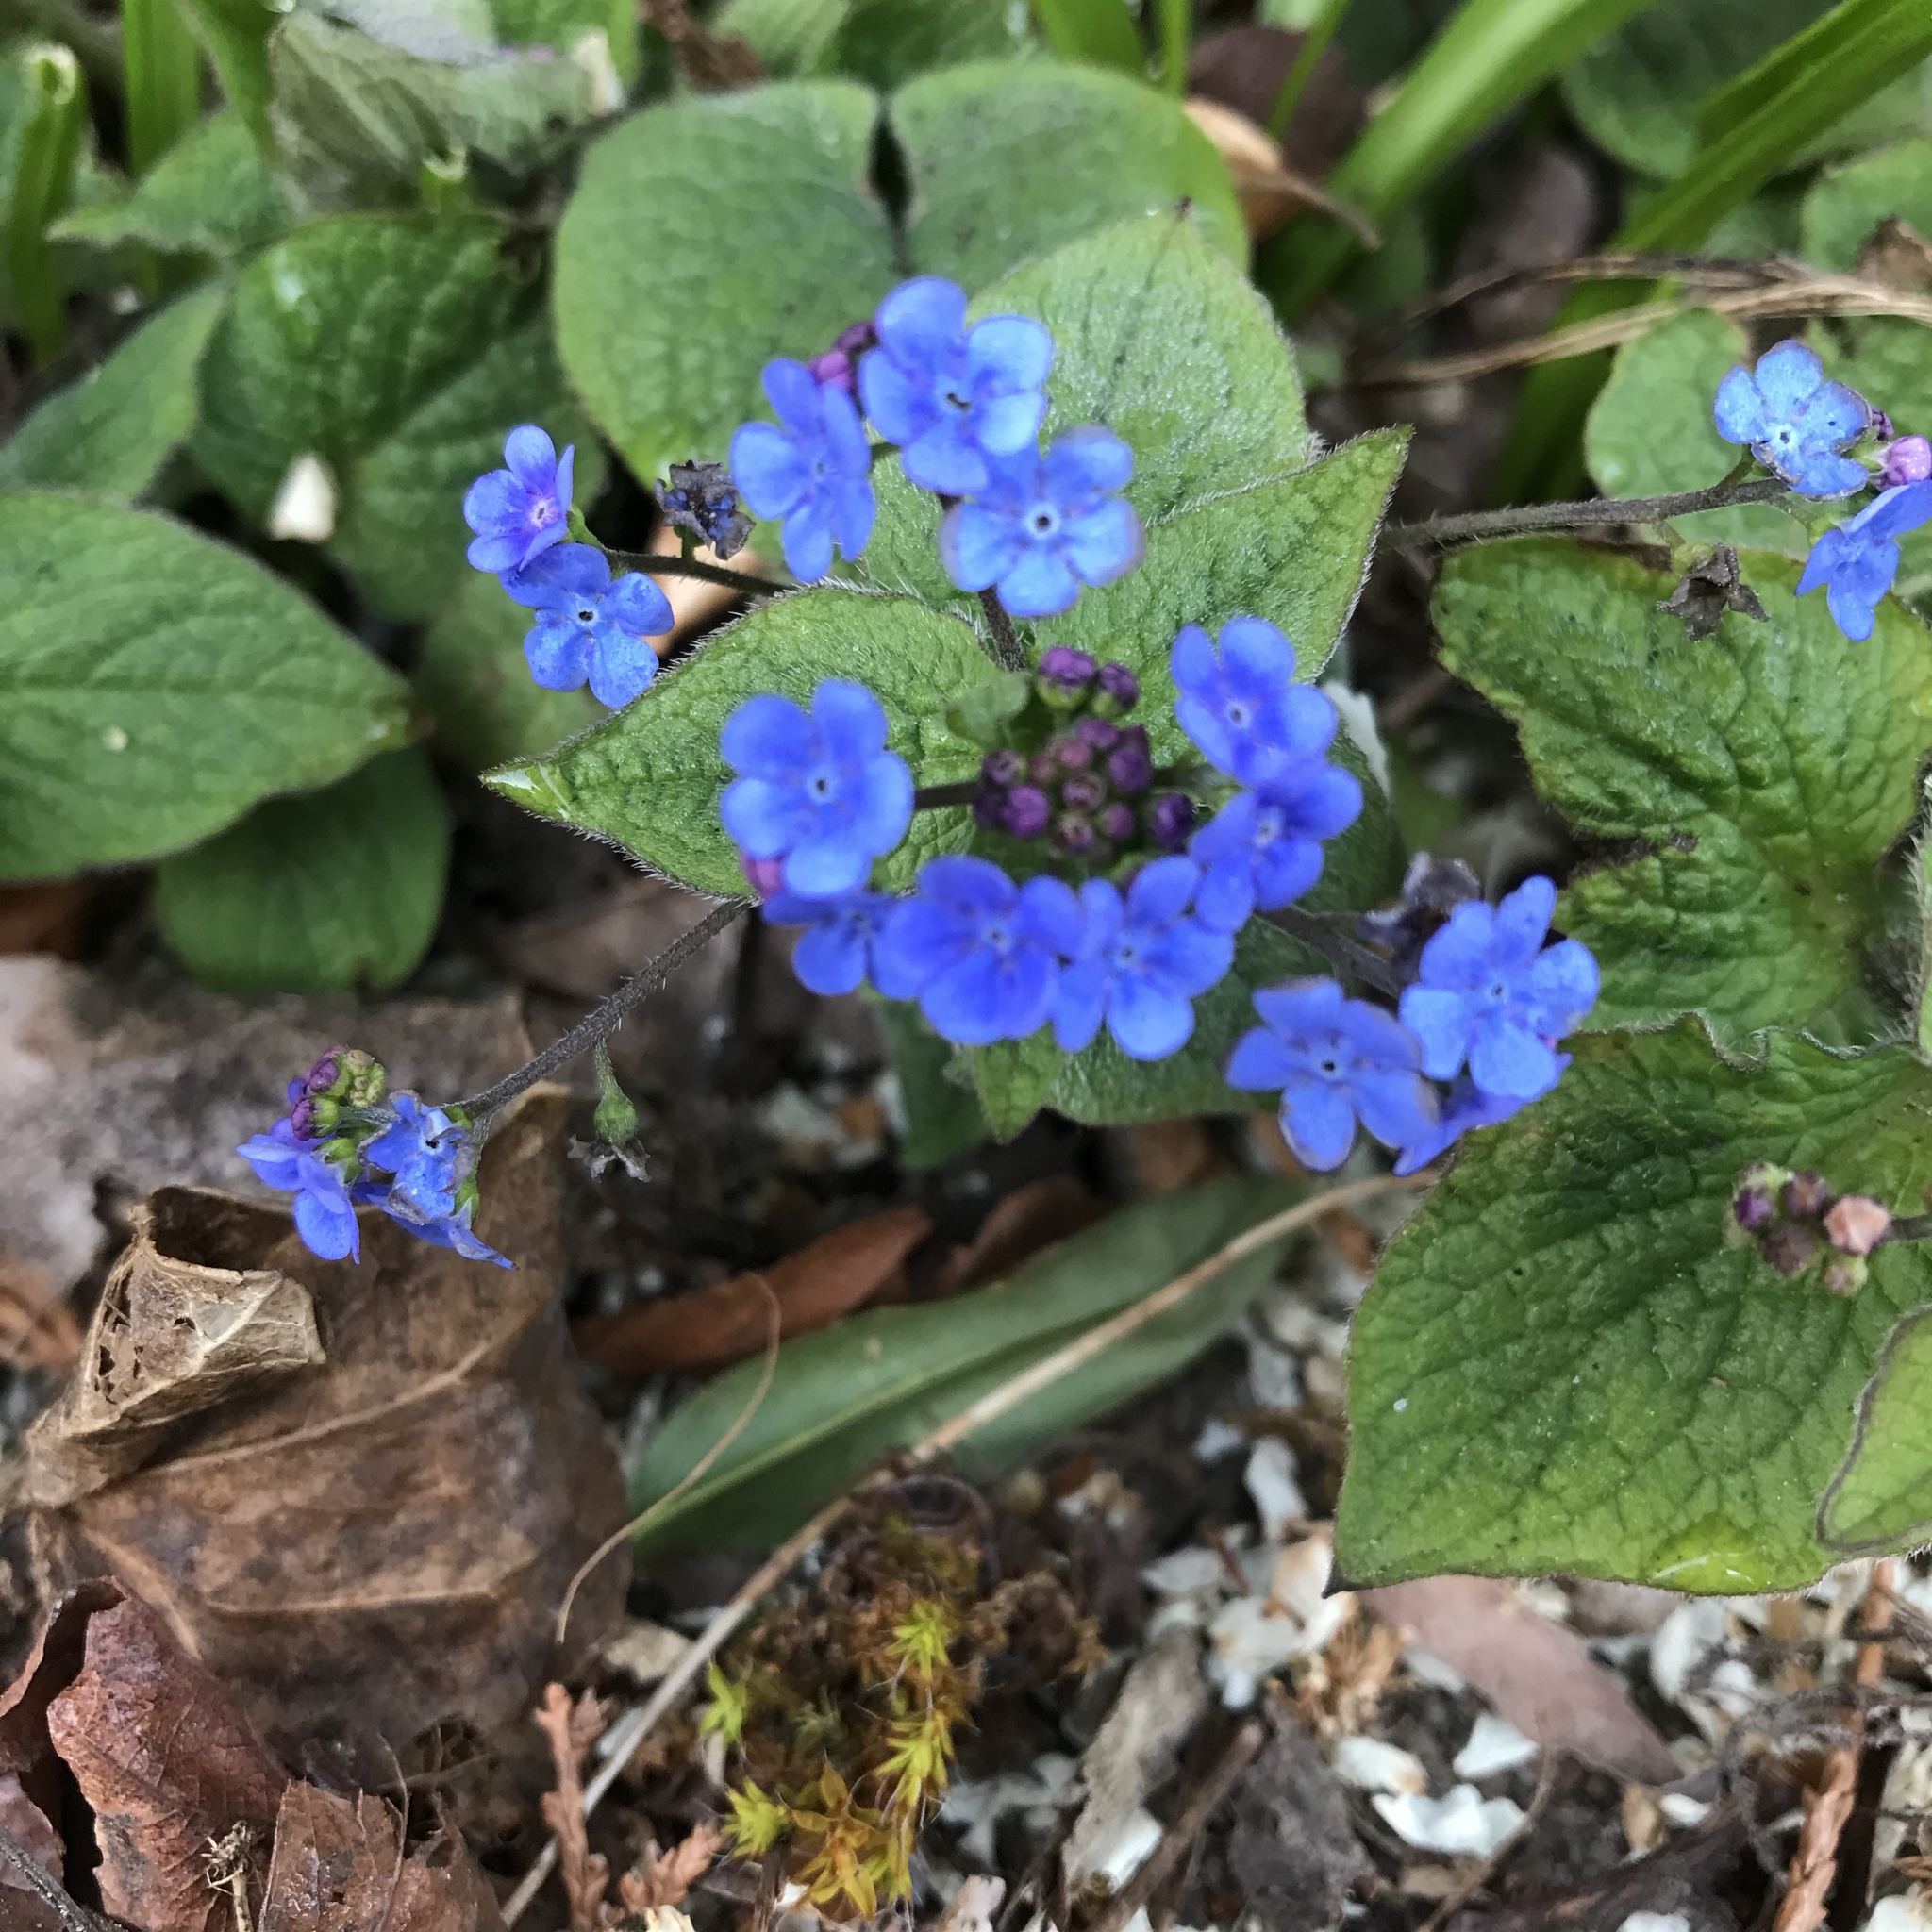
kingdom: Plantae
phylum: Tracheophyta
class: Magnoliopsida
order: Boraginales
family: Boraginaceae
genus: Brunnera
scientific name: Brunnera macrophylla
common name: Great forget-me-not
